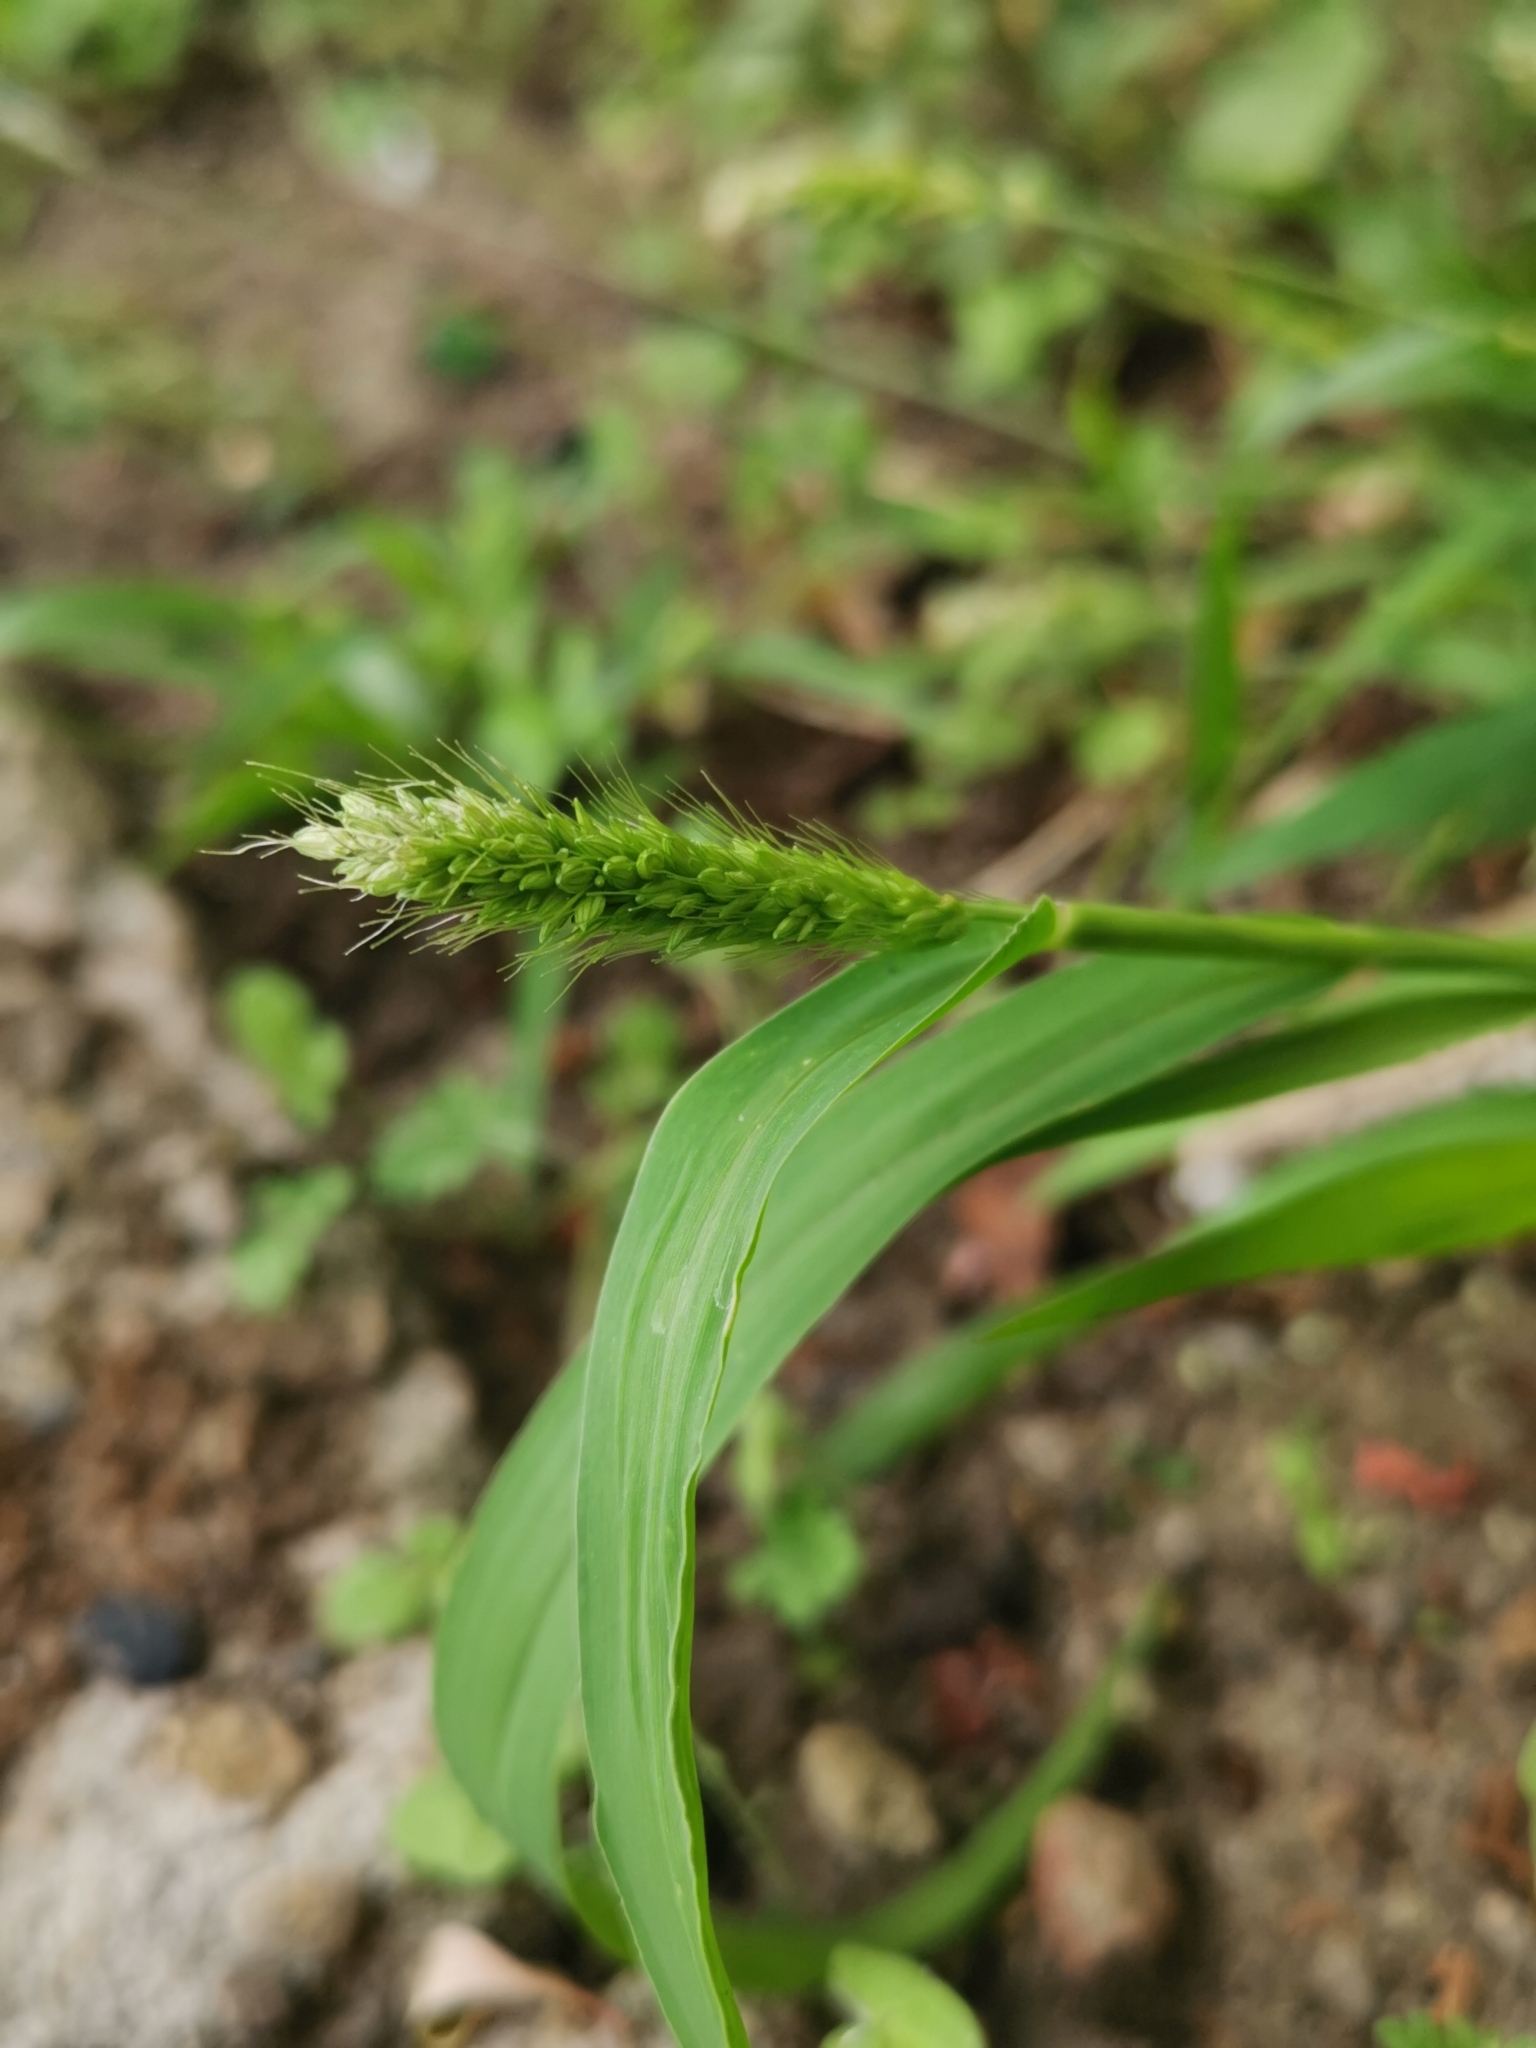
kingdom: Plantae
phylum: Tracheophyta
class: Liliopsida
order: Poales
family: Poaceae
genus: Setaria
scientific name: Setaria viridis
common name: Green bristlegrass
